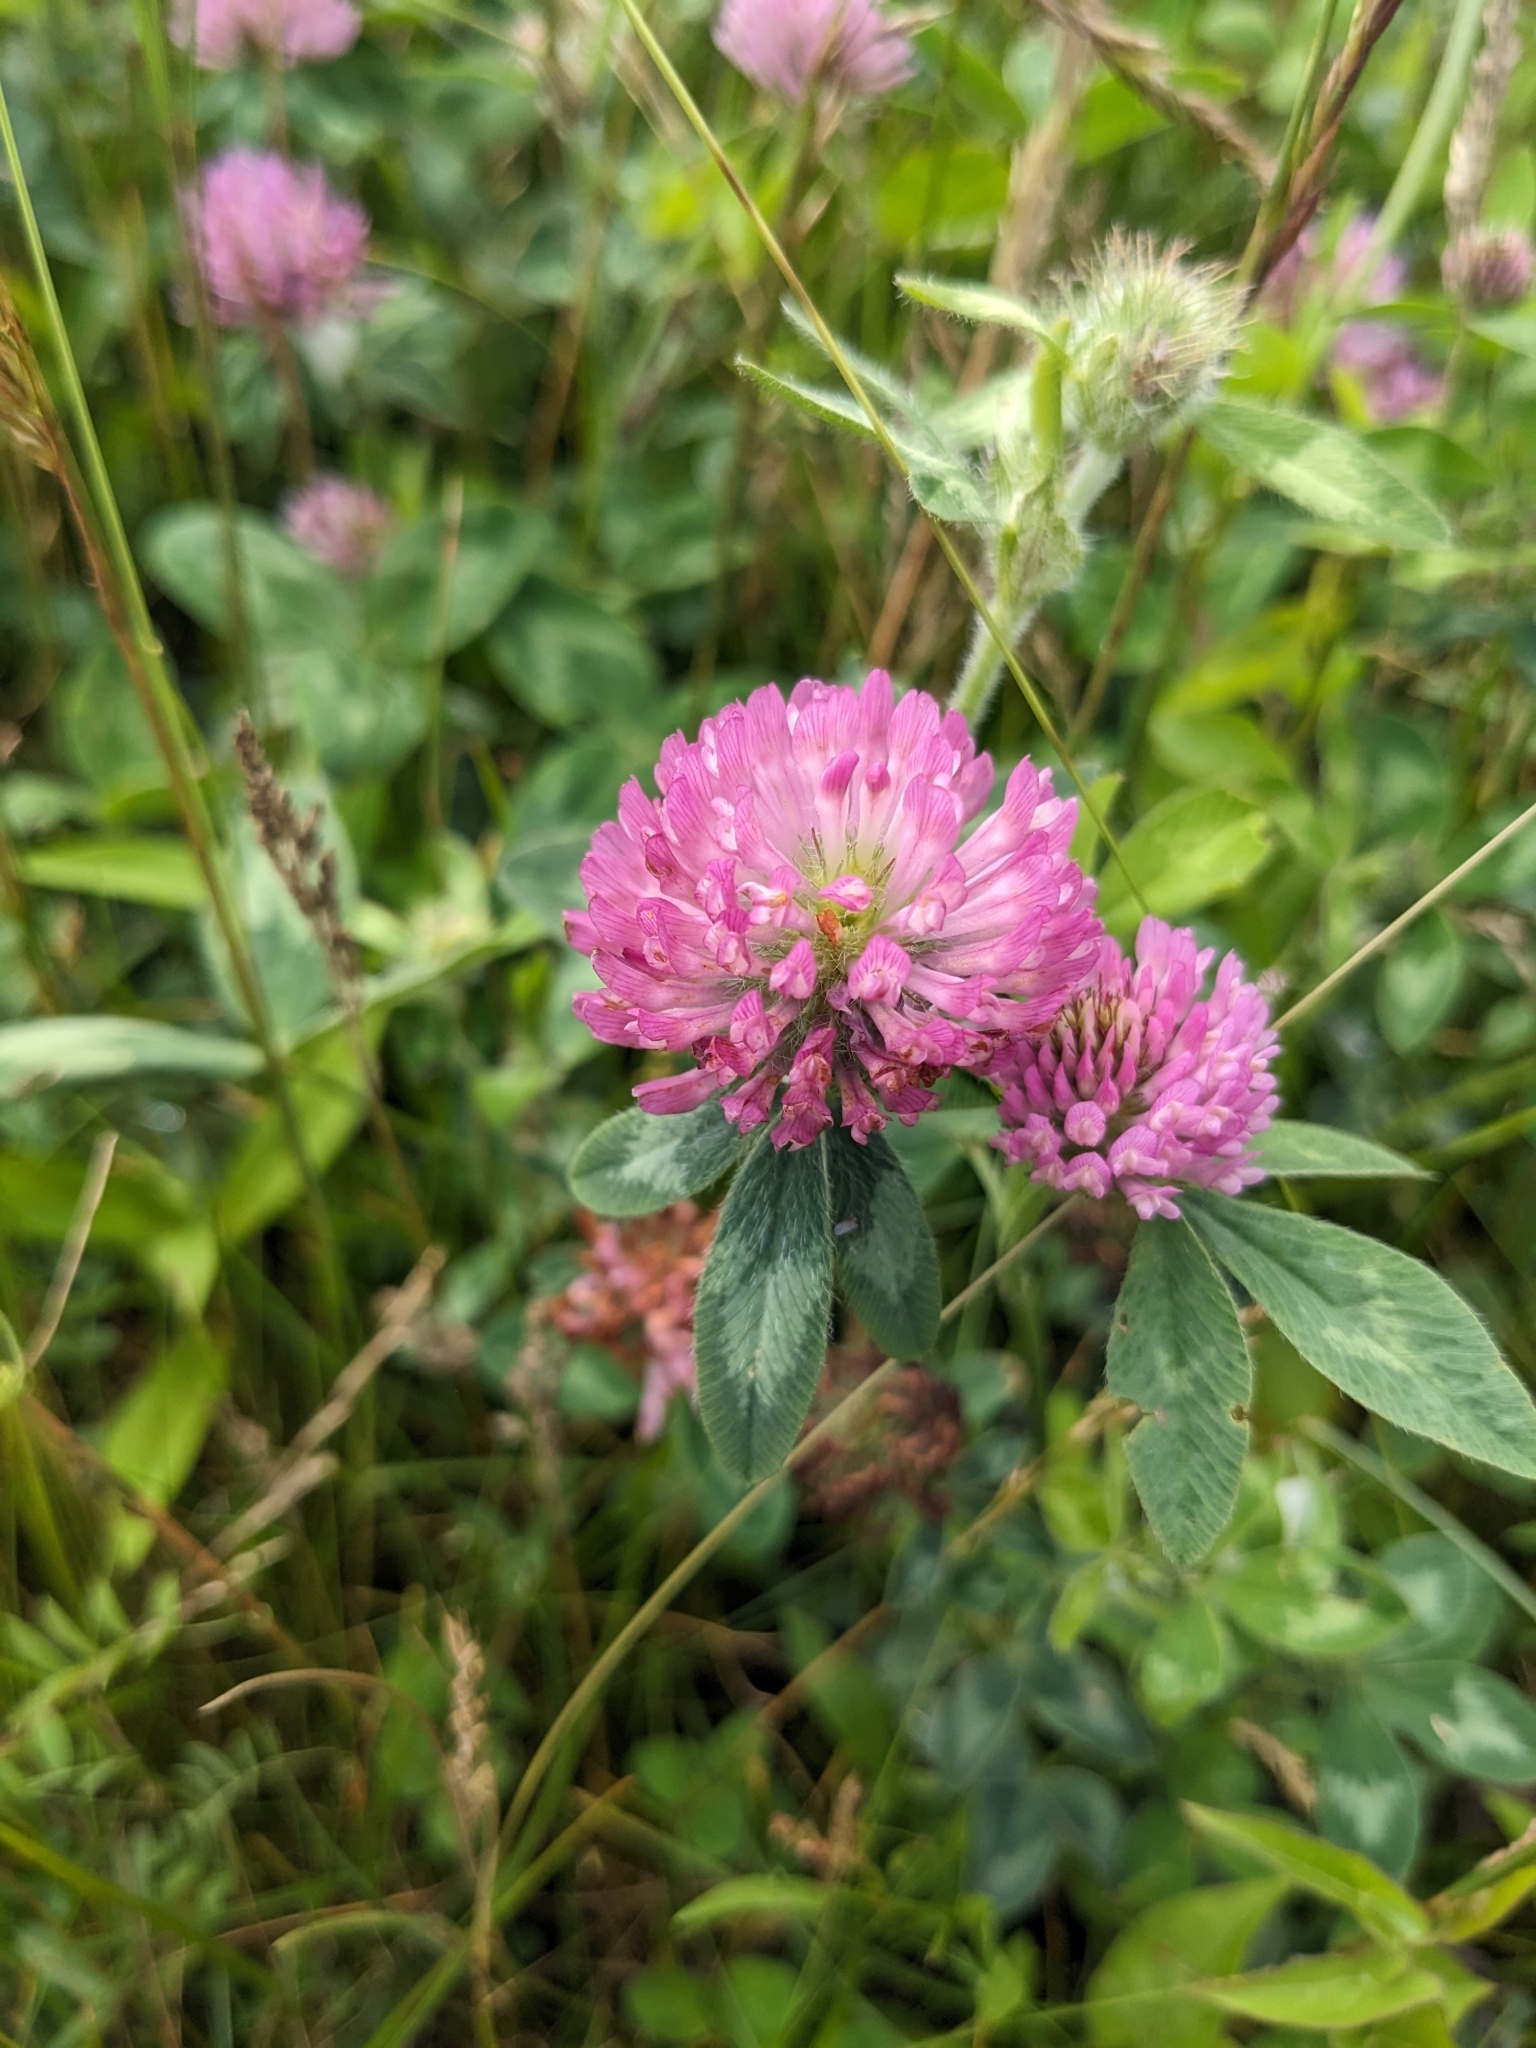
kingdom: Plantae
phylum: Tracheophyta
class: Magnoliopsida
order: Fabales
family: Fabaceae
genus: Trifolium
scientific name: Trifolium pratense
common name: Red clover
